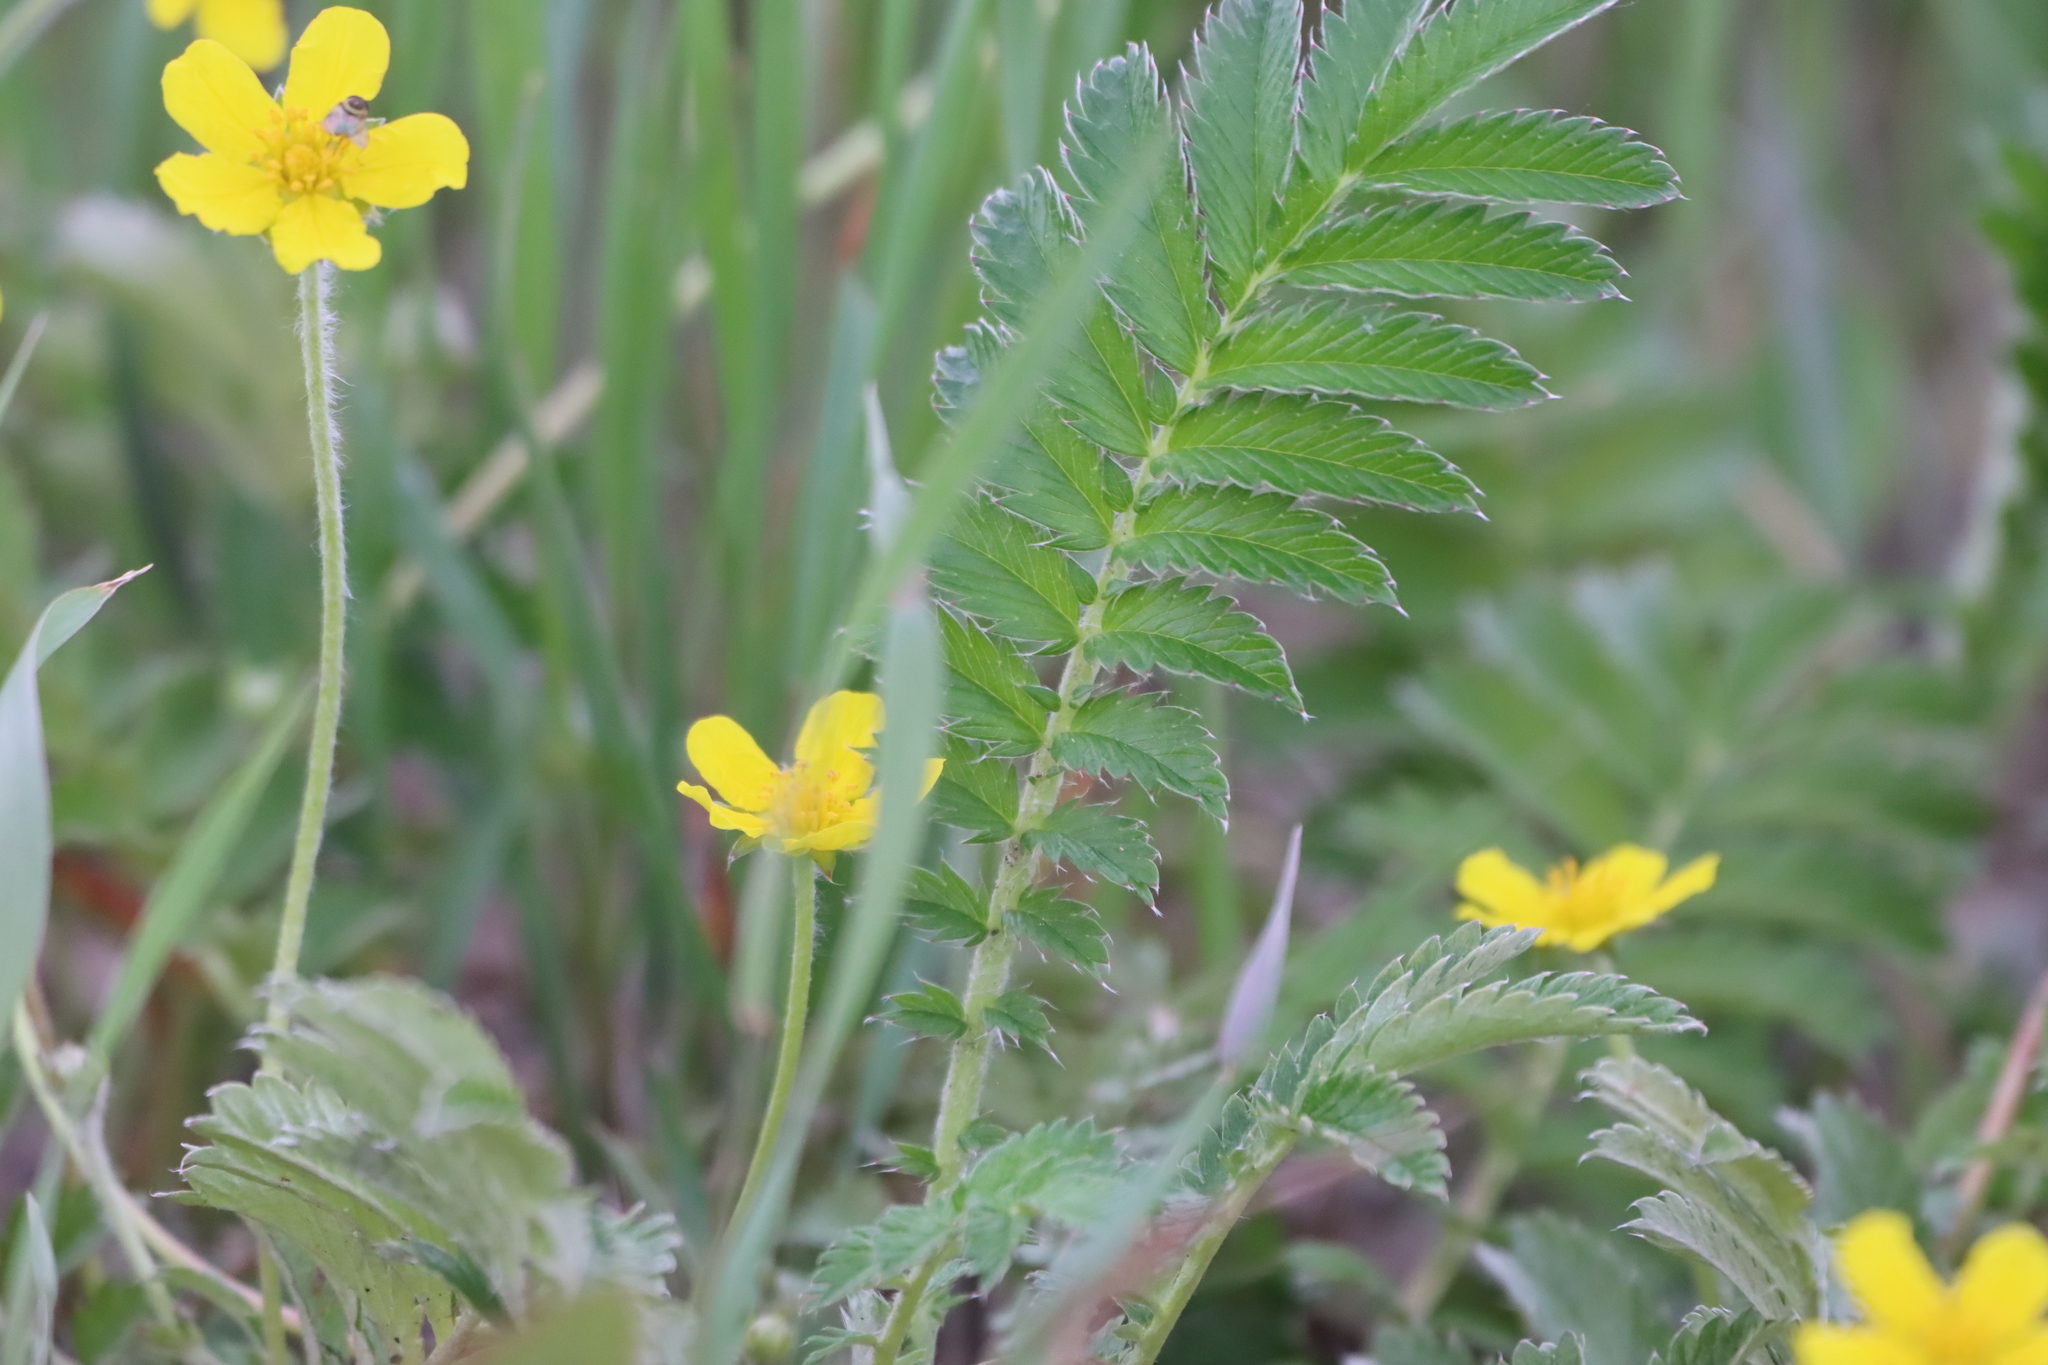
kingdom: Plantae
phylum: Tracheophyta
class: Magnoliopsida
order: Rosales
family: Rosaceae
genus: Argentina
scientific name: Argentina anserina
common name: Common silverweed
